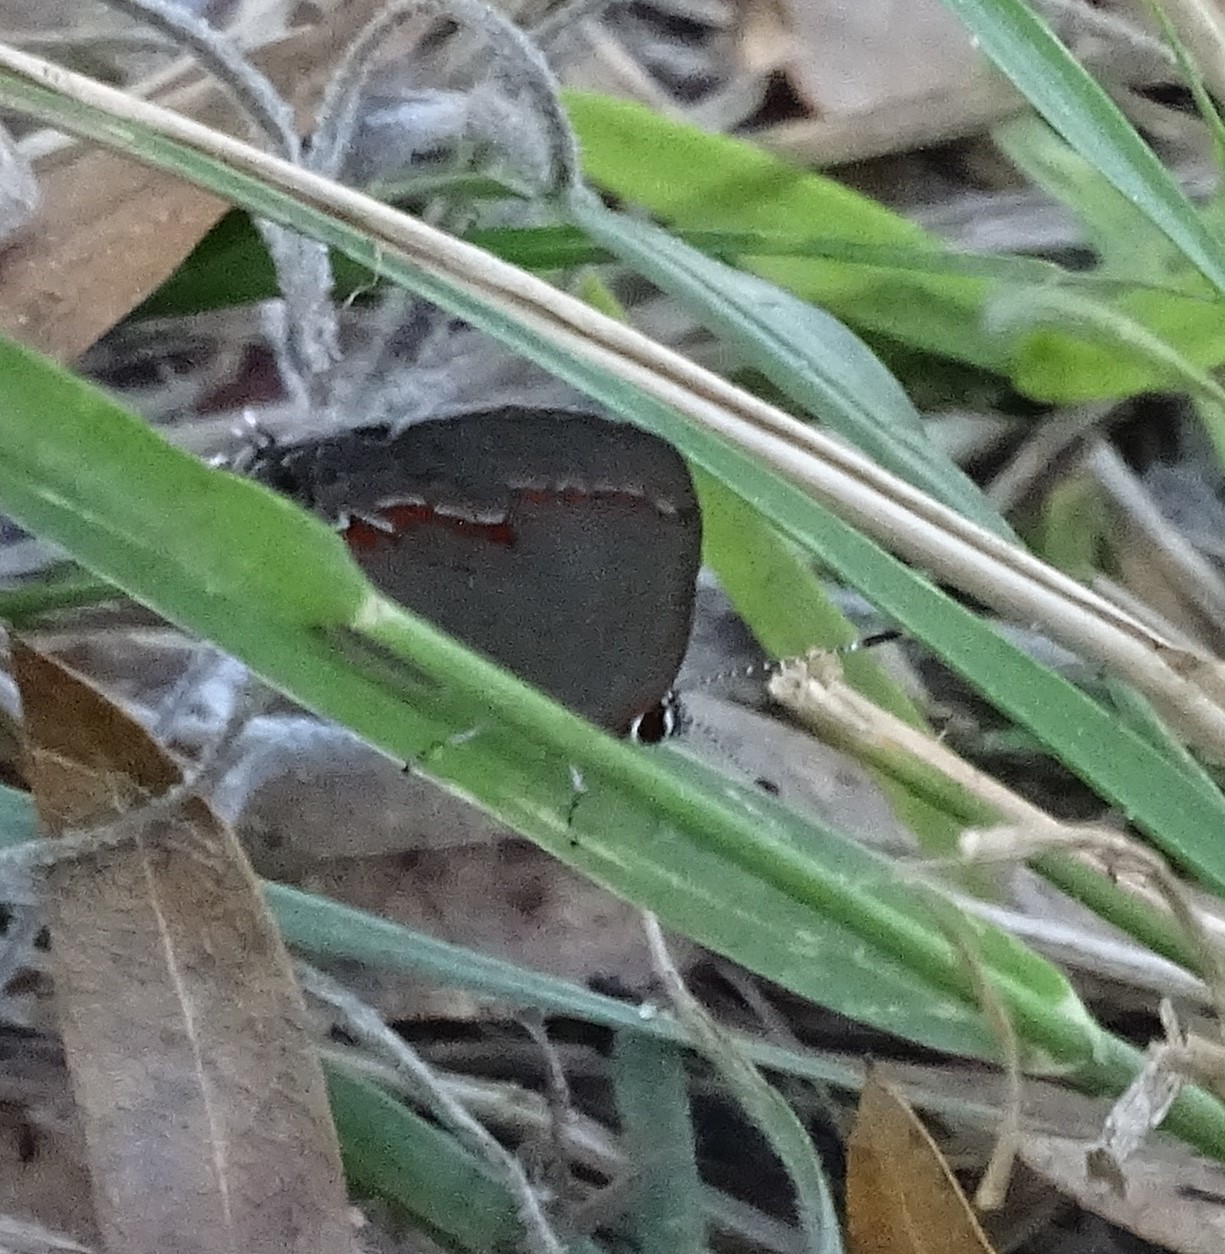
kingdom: Animalia
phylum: Arthropoda
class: Insecta
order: Lepidoptera
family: Lycaenidae
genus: Calycopis
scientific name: Calycopis cecrops
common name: Red-banded hairstreak
